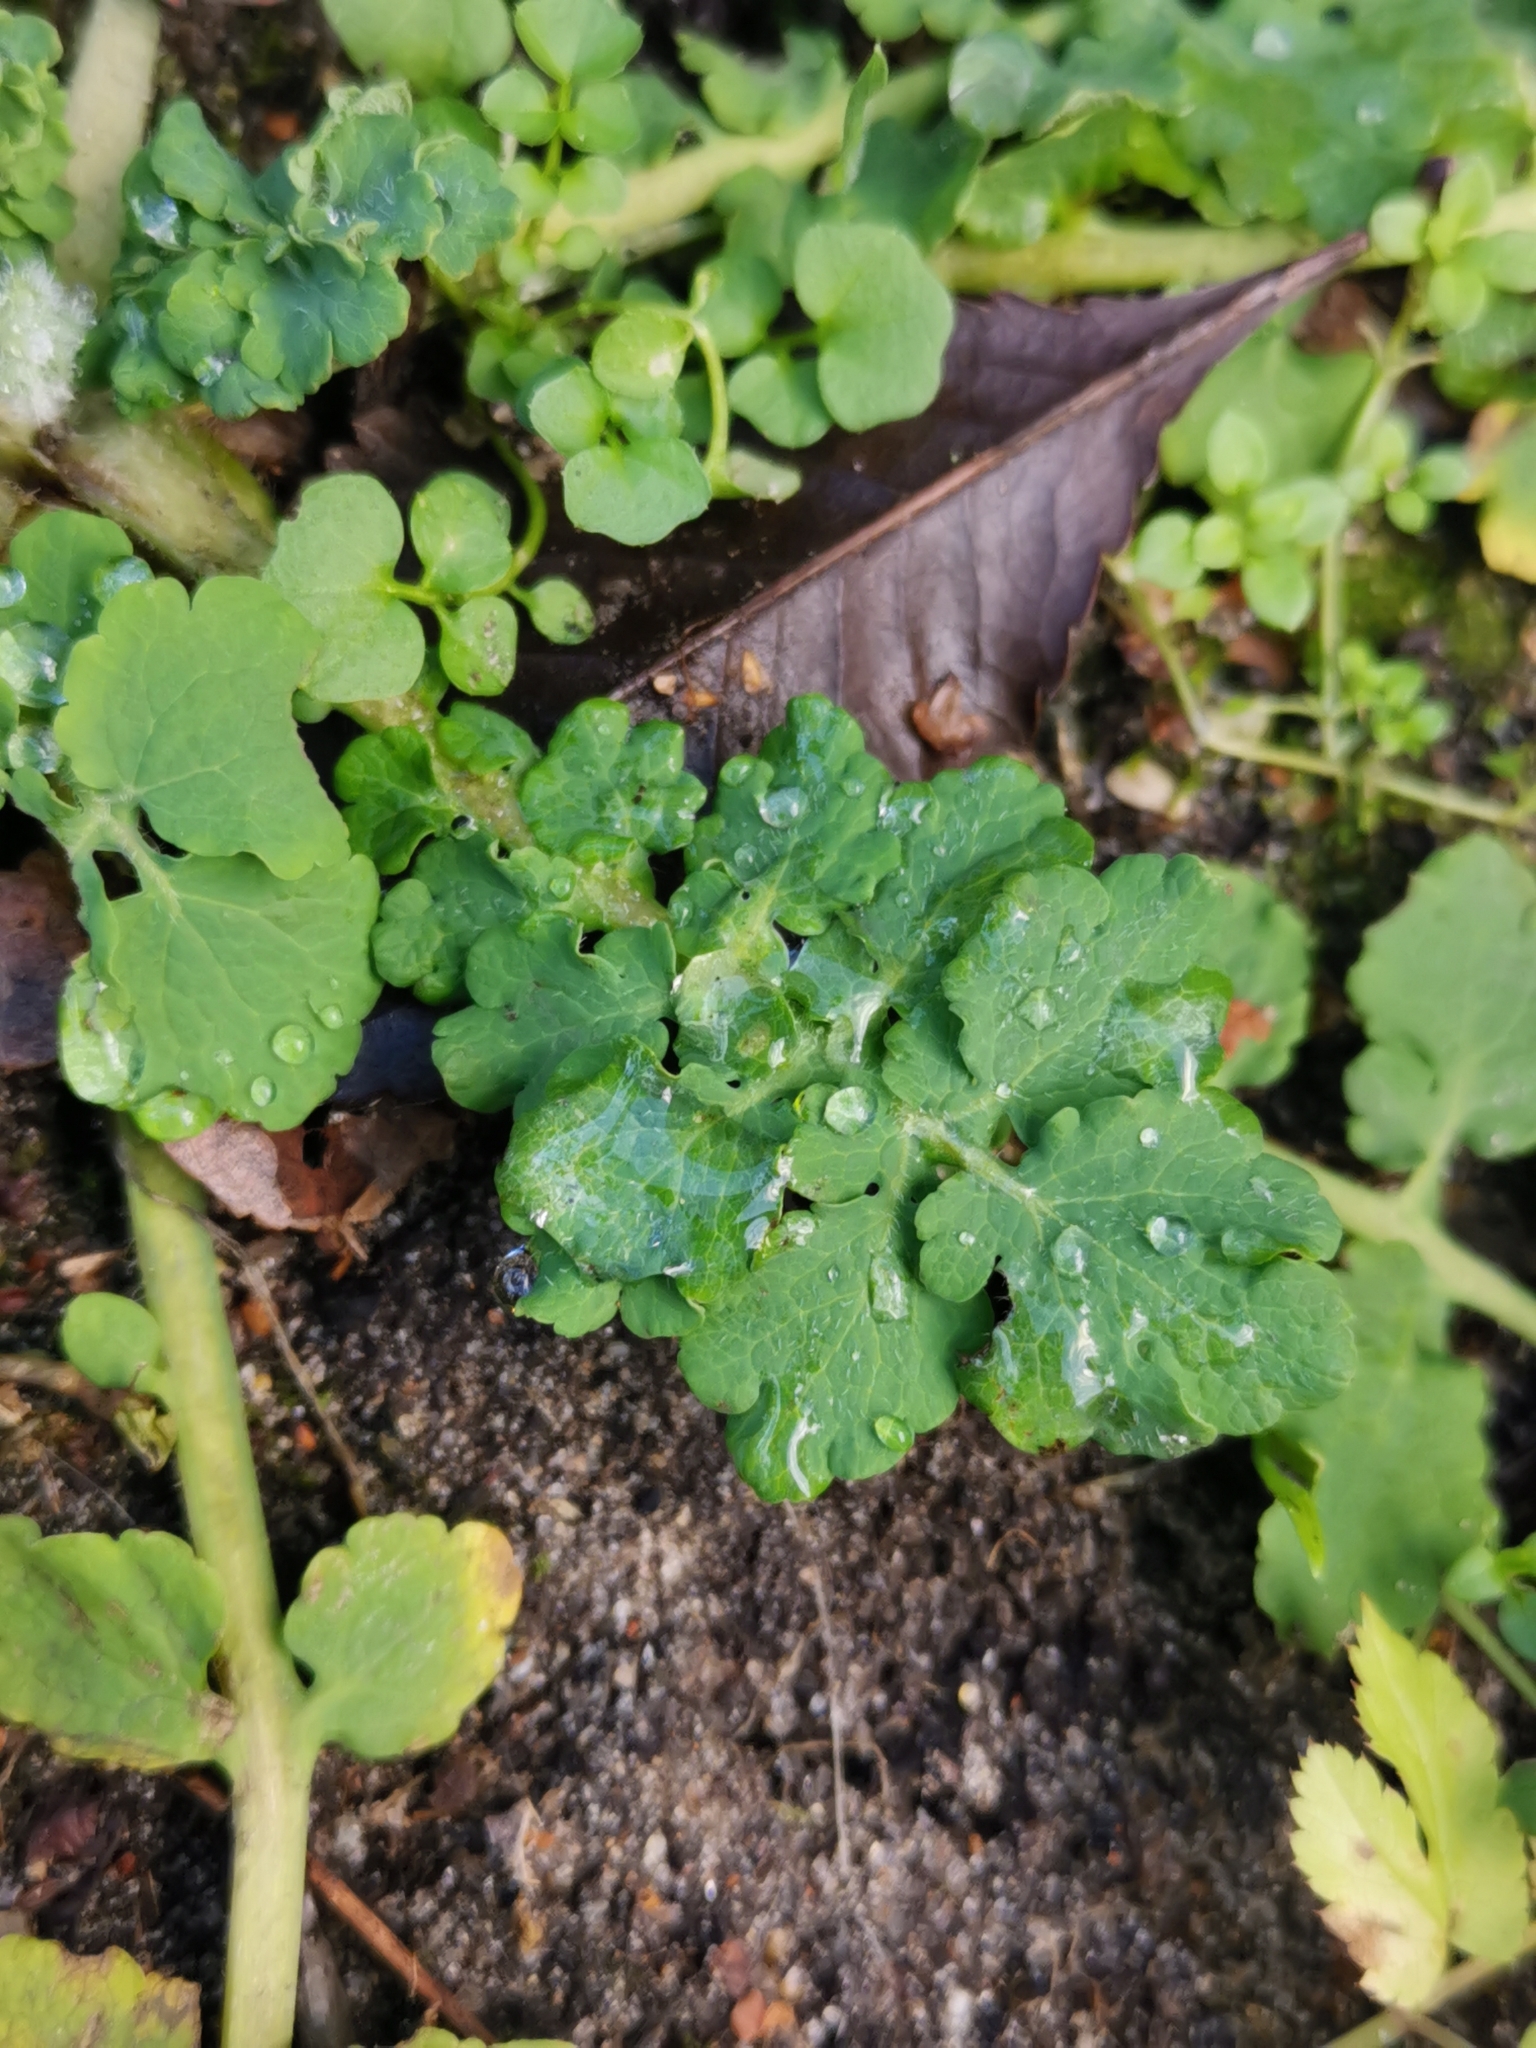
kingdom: Plantae
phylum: Tracheophyta
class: Magnoliopsida
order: Ranunculales
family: Papaveraceae
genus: Chelidonium
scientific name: Chelidonium majus
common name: Greater celandine
